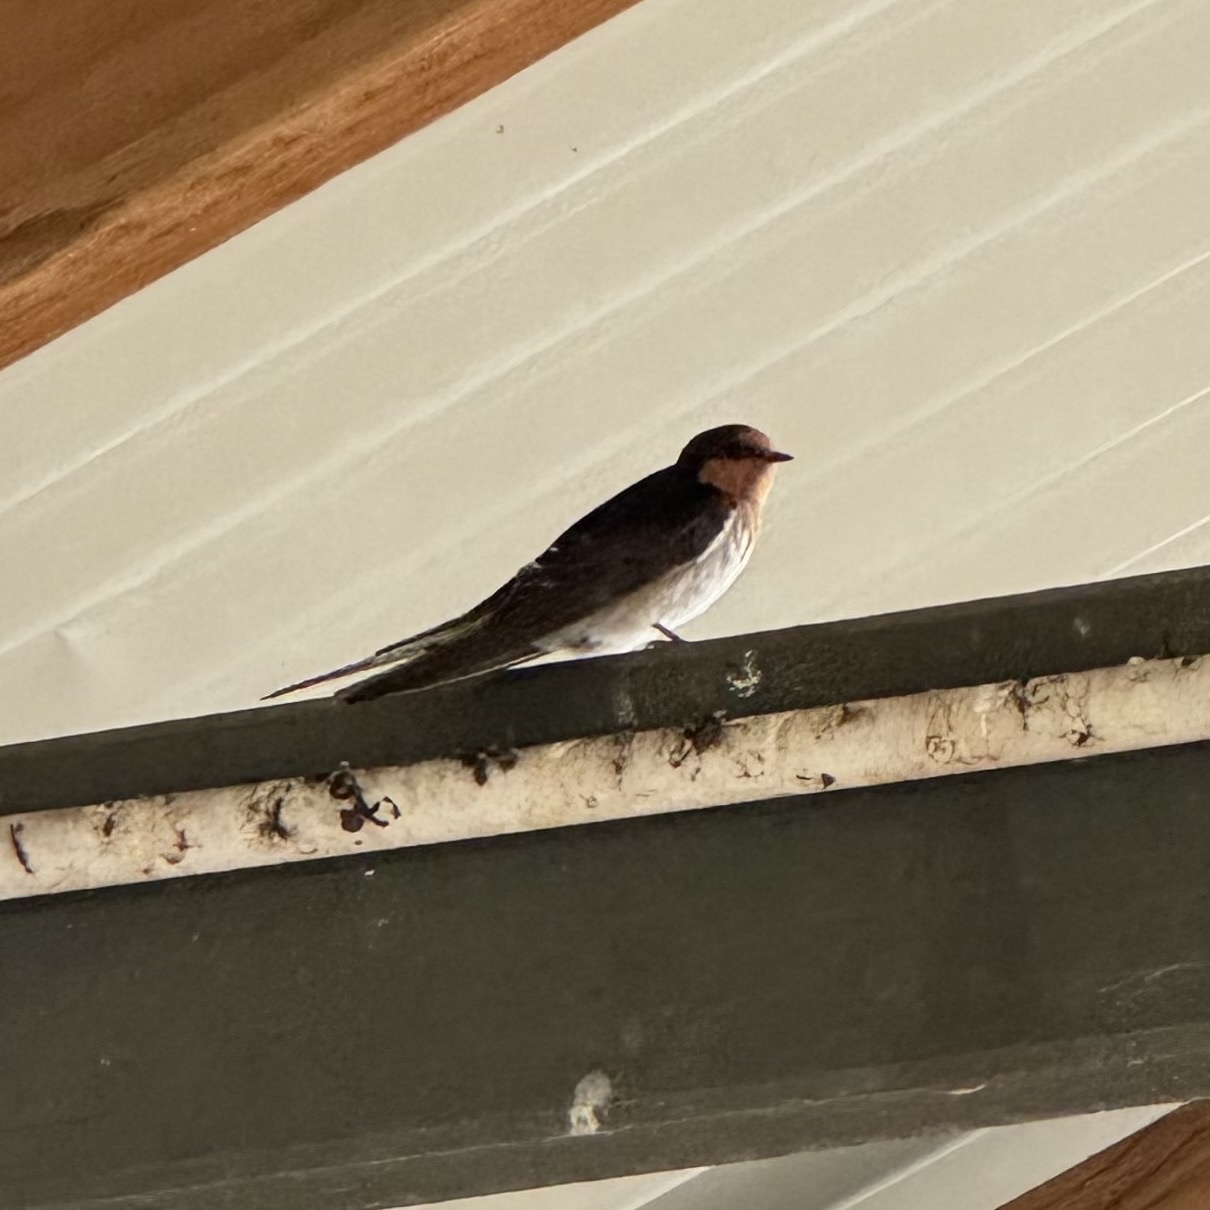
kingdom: Animalia
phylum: Chordata
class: Aves
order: Passeriformes
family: Hirundinidae
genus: Hirundo
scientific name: Hirundo neoxena
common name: Welcome swallow
